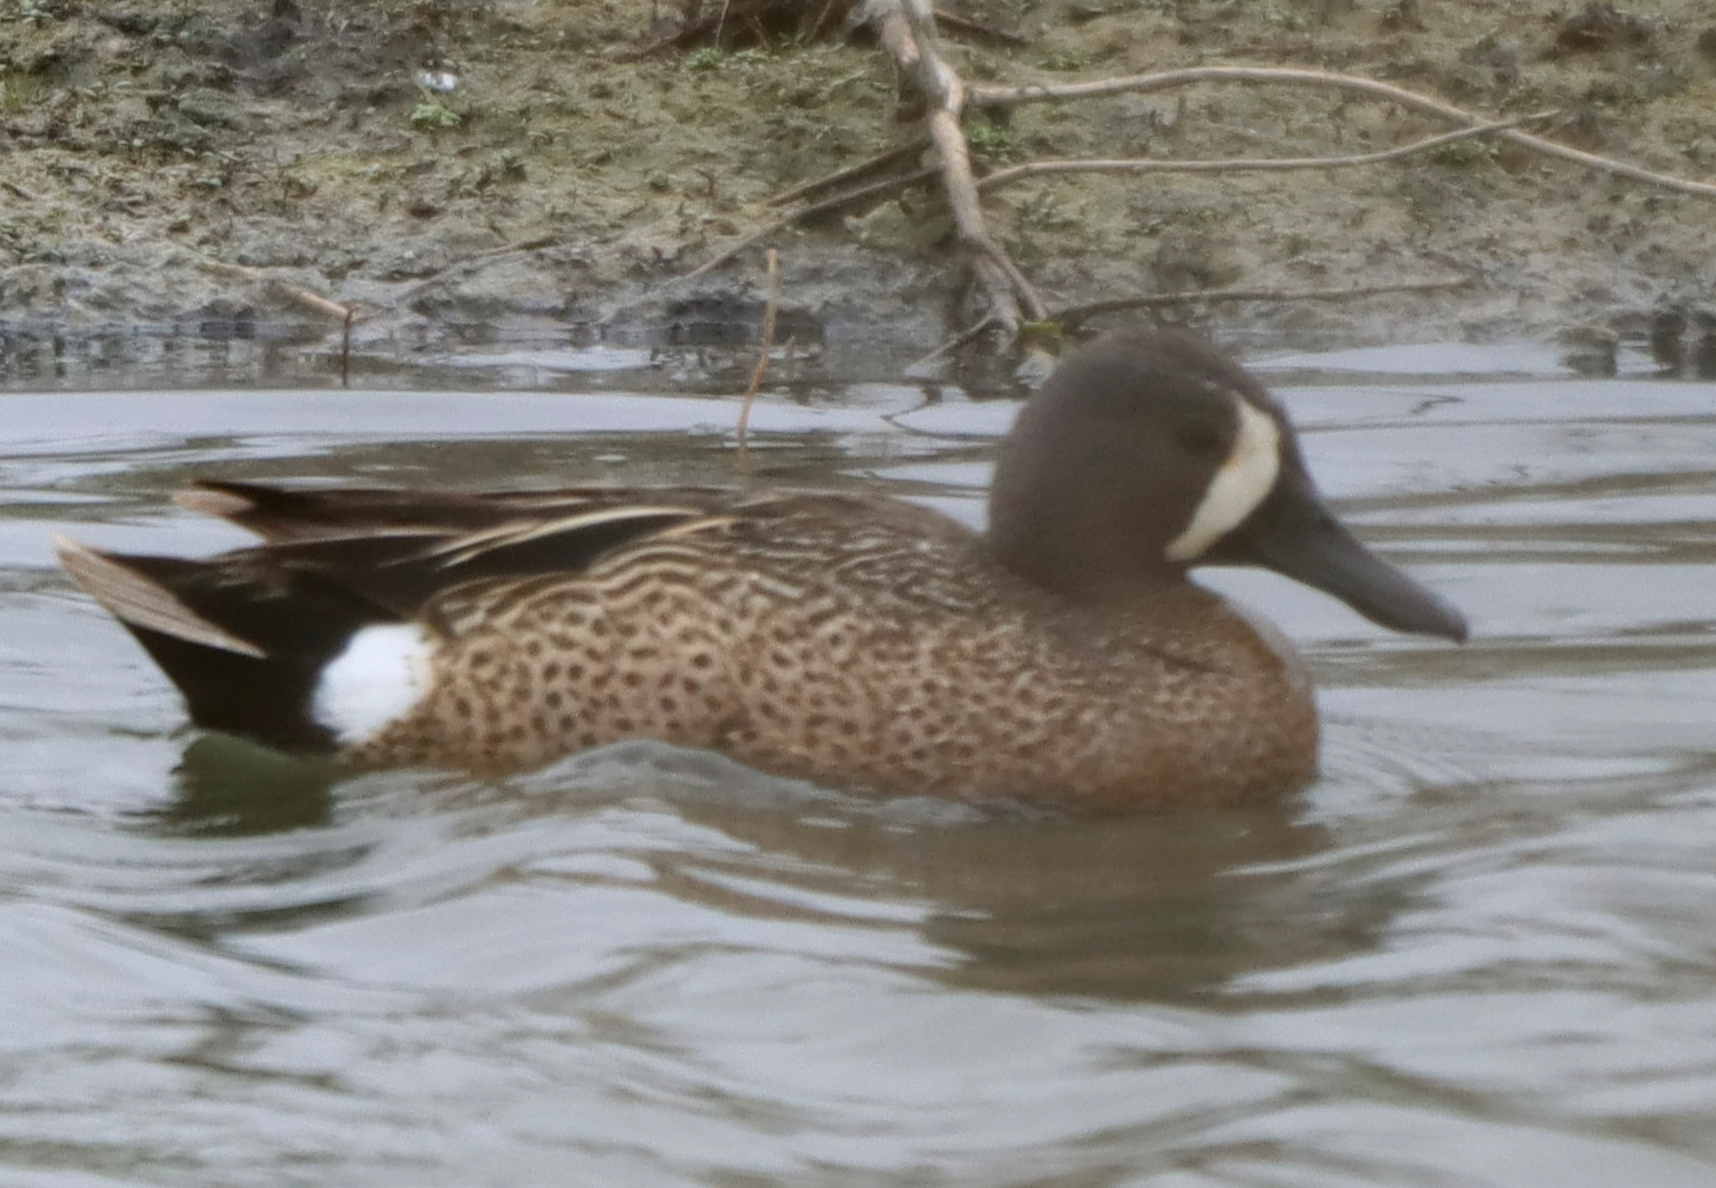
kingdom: Animalia
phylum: Chordata
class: Aves
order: Anseriformes
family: Anatidae
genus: Spatula
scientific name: Spatula discors
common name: Blue-winged teal
